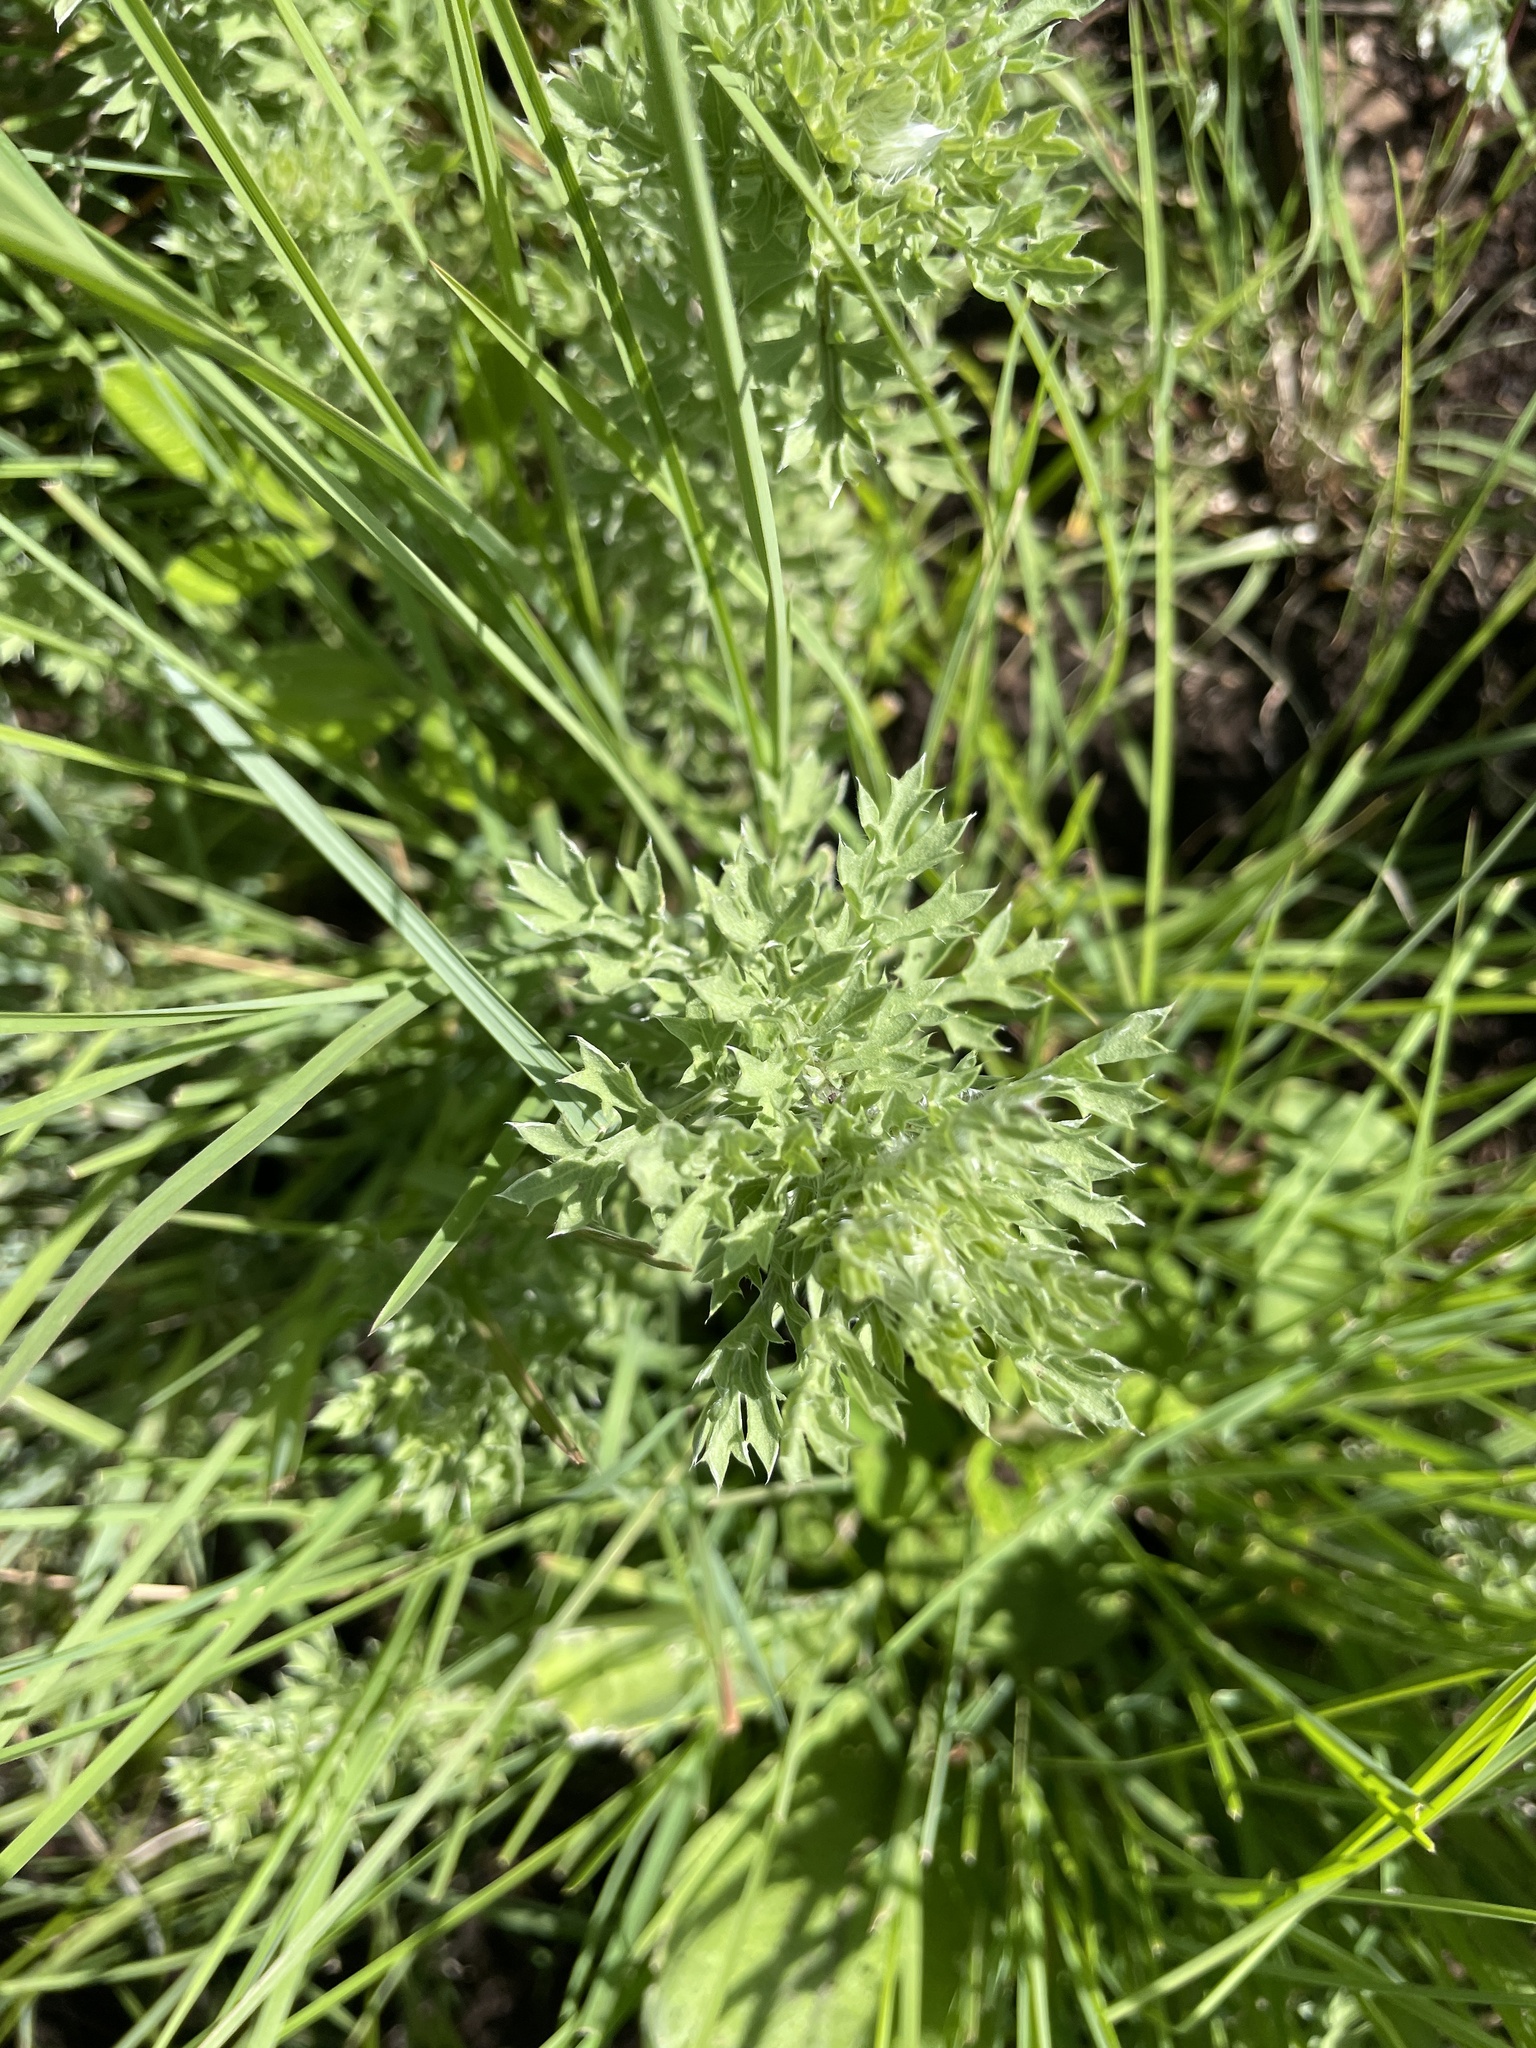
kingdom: Plantae
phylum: Tracheophyta
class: Magnoliopsida
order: Asterales
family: Asteraceae
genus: Schistostephium
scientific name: Schistostephium crataegifolium
